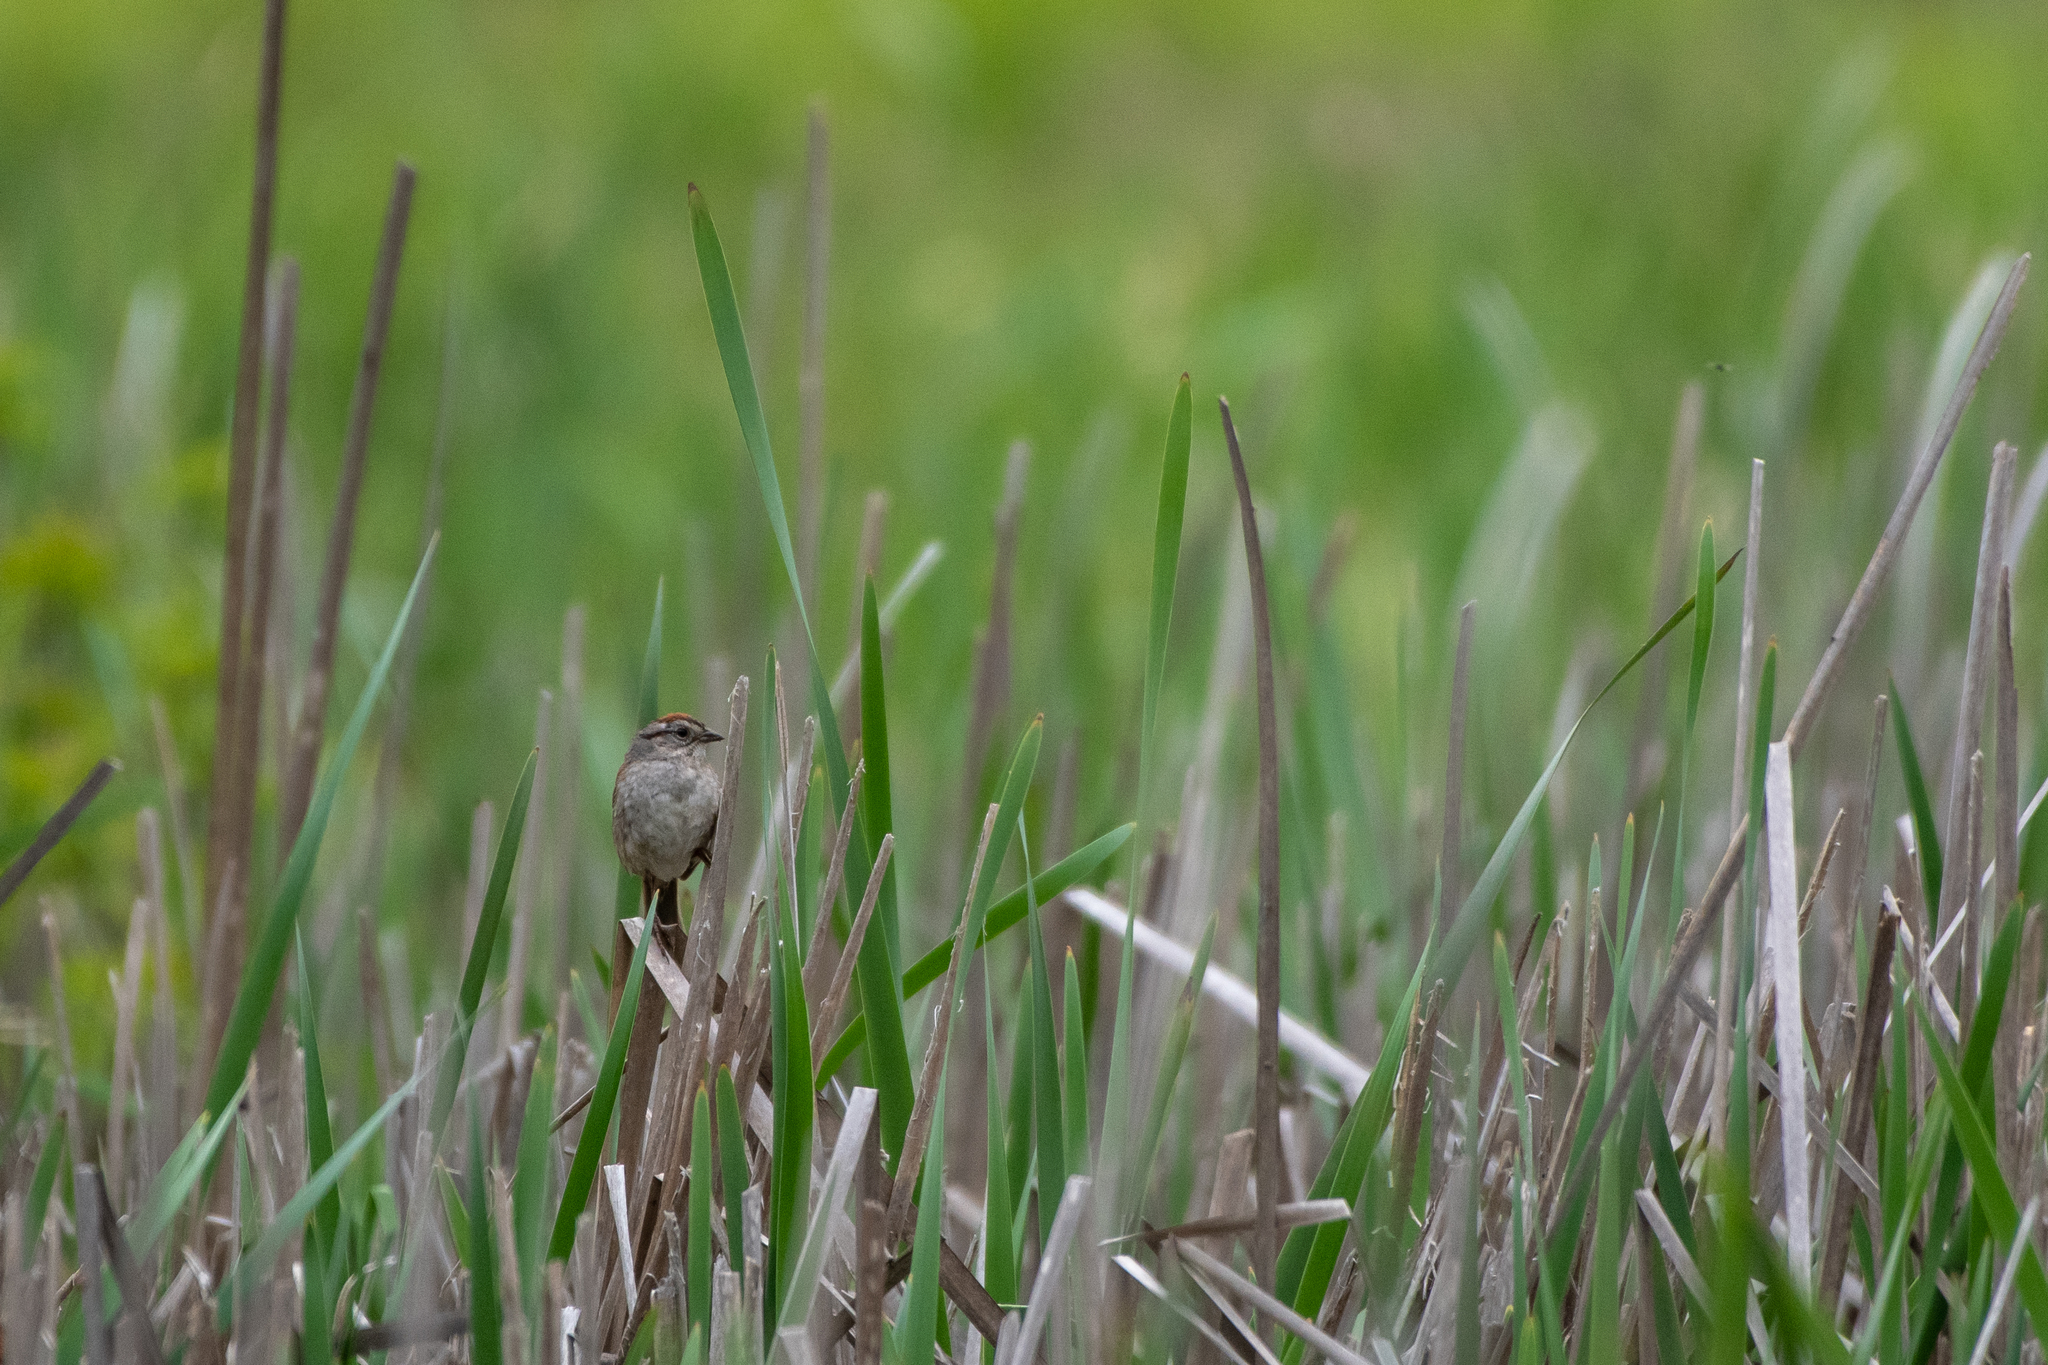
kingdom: Animalia
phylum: Chordata
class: Aves
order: Passeriformes
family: Passerellidae
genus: Melospiza
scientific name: Melospiza georgiana
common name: Swamp sparrow
